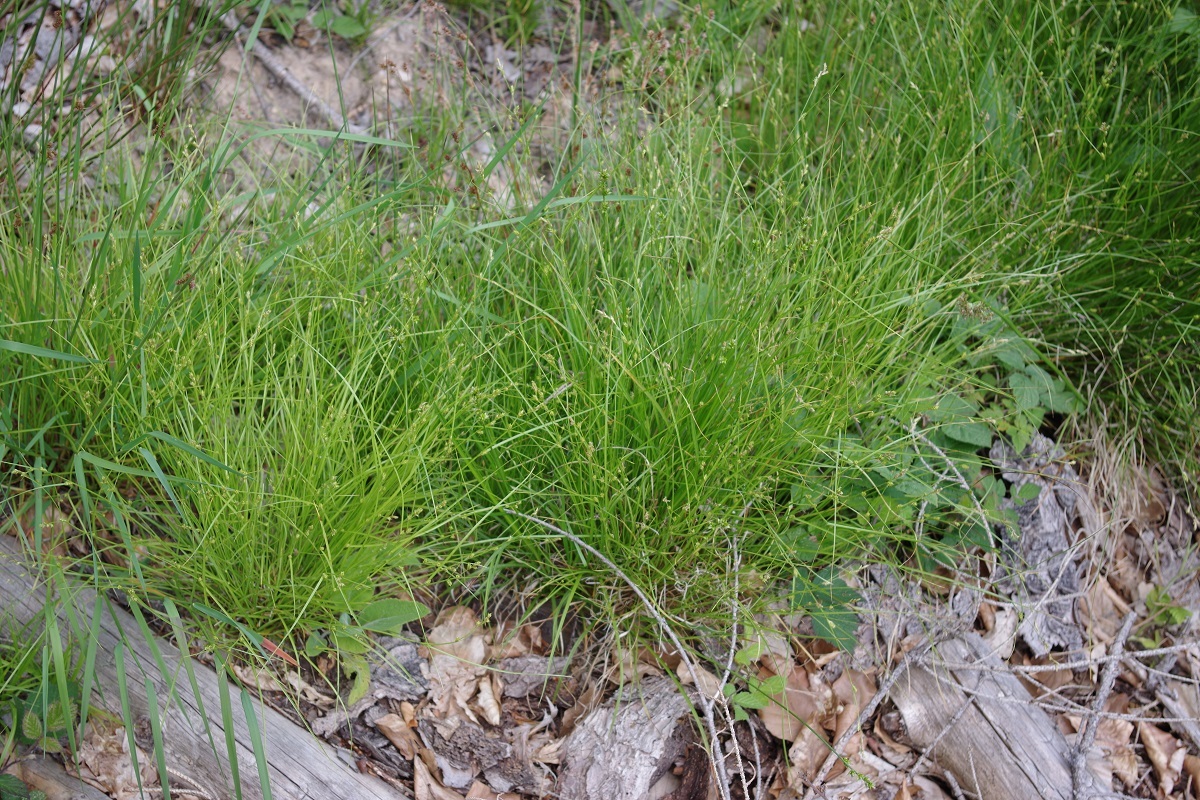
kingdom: Plantae
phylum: Tracheophyta
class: Liliopsida
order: Poales
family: Cyperaceae
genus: Carex
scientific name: Carex remota
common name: Remote sedge
